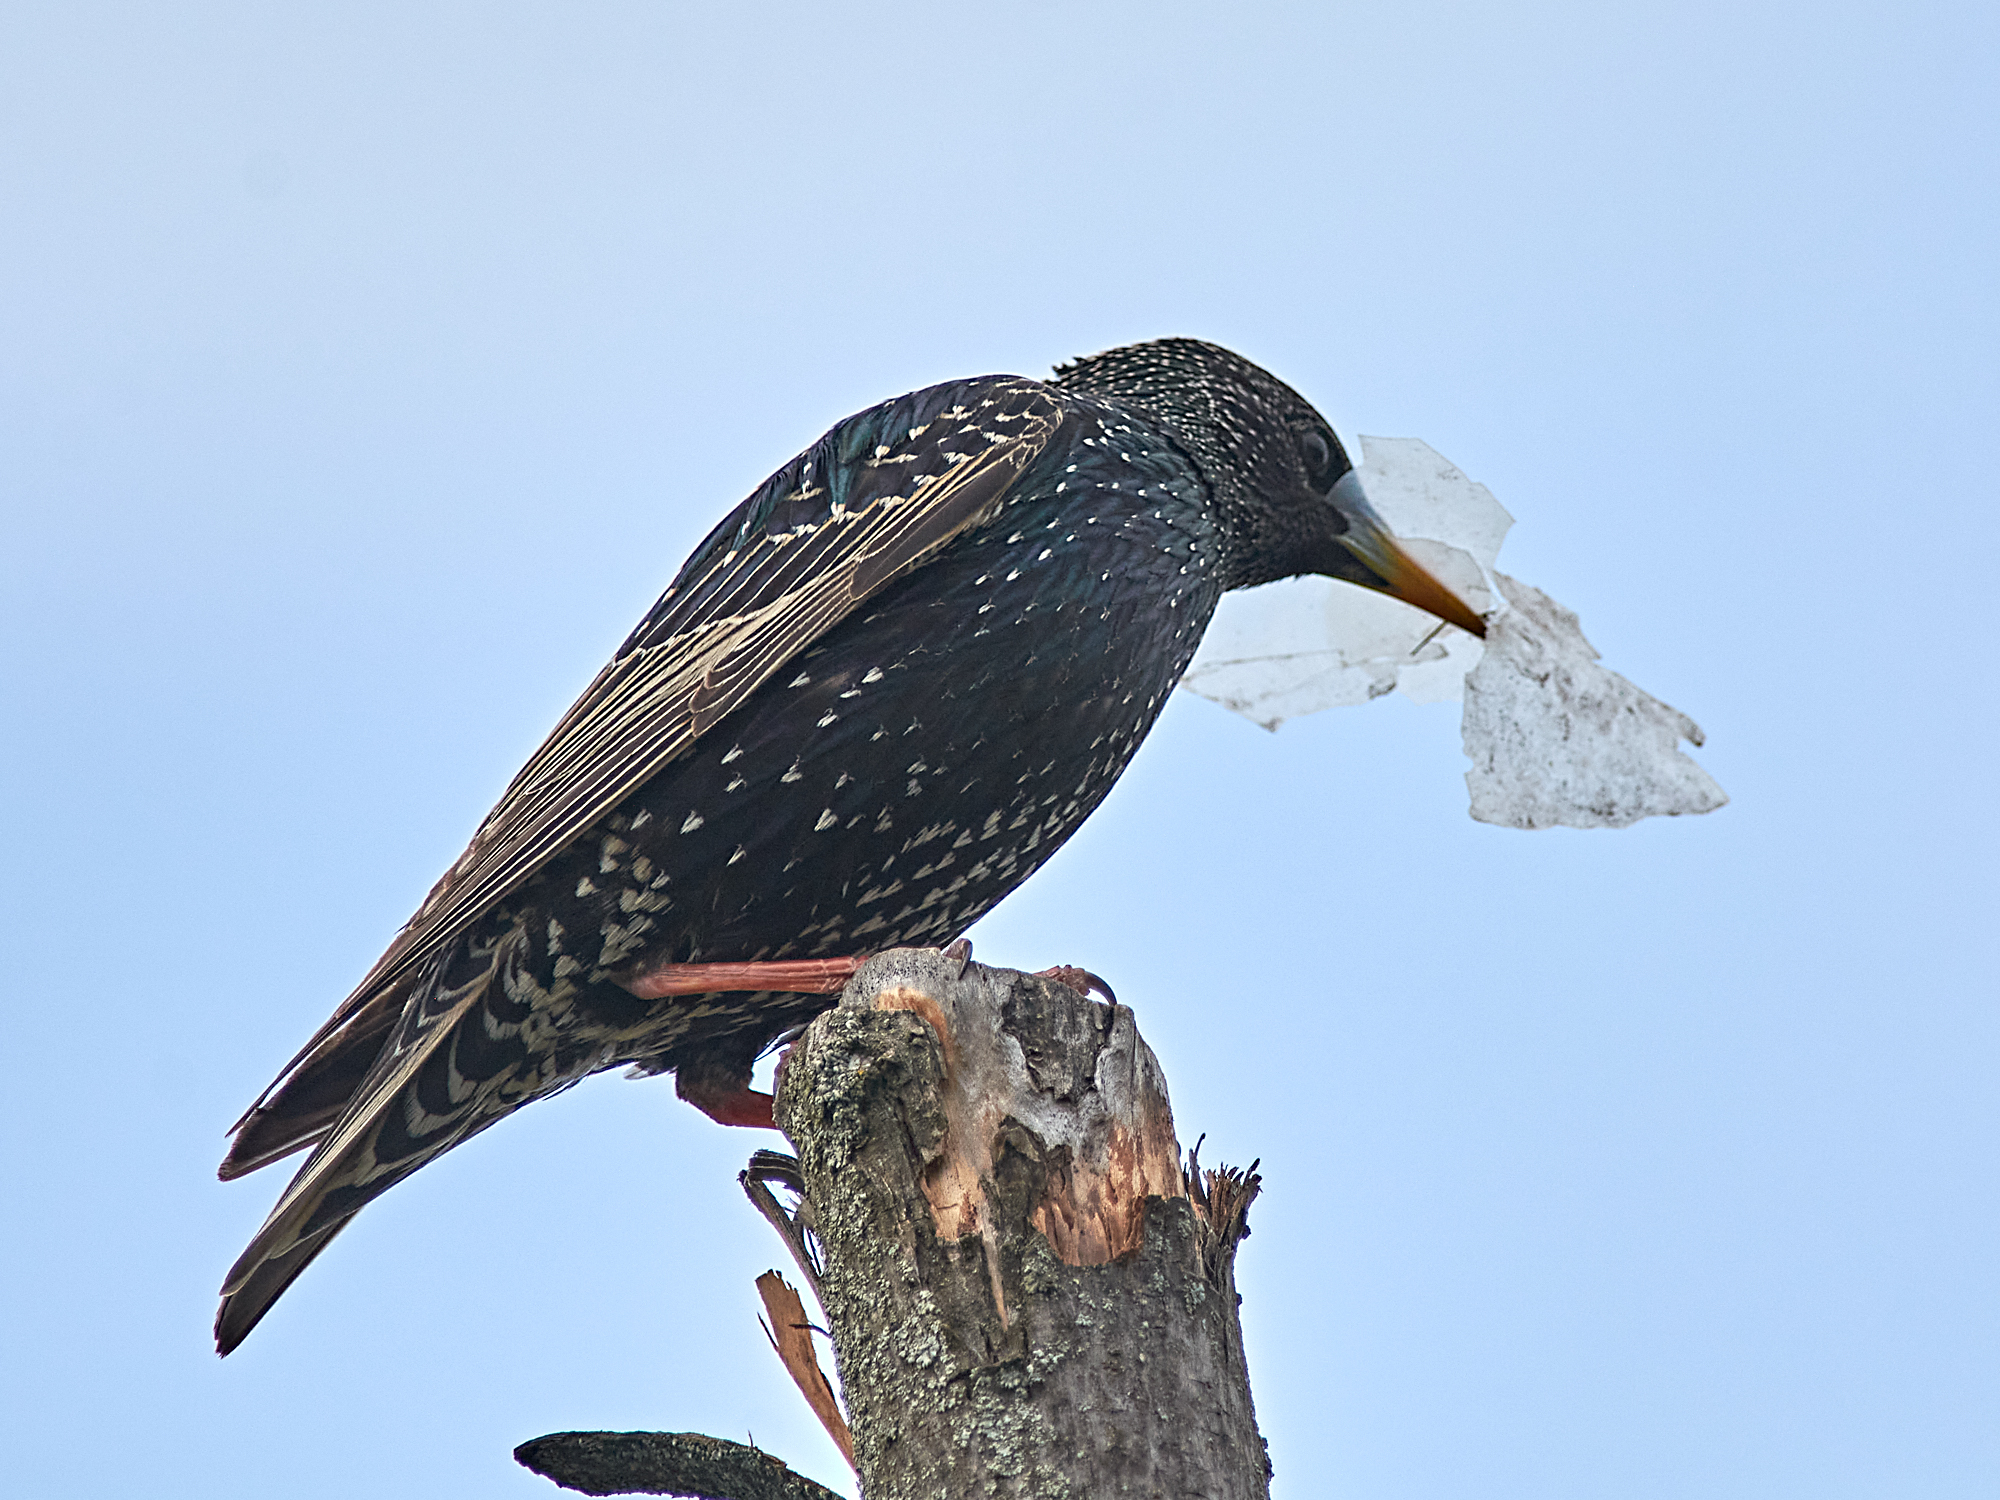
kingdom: Animalia
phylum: Chordata
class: Aves
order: Passeriformes
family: Sturnidae
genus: Sturnus
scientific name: Sturnus vulgaris
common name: Common starling
